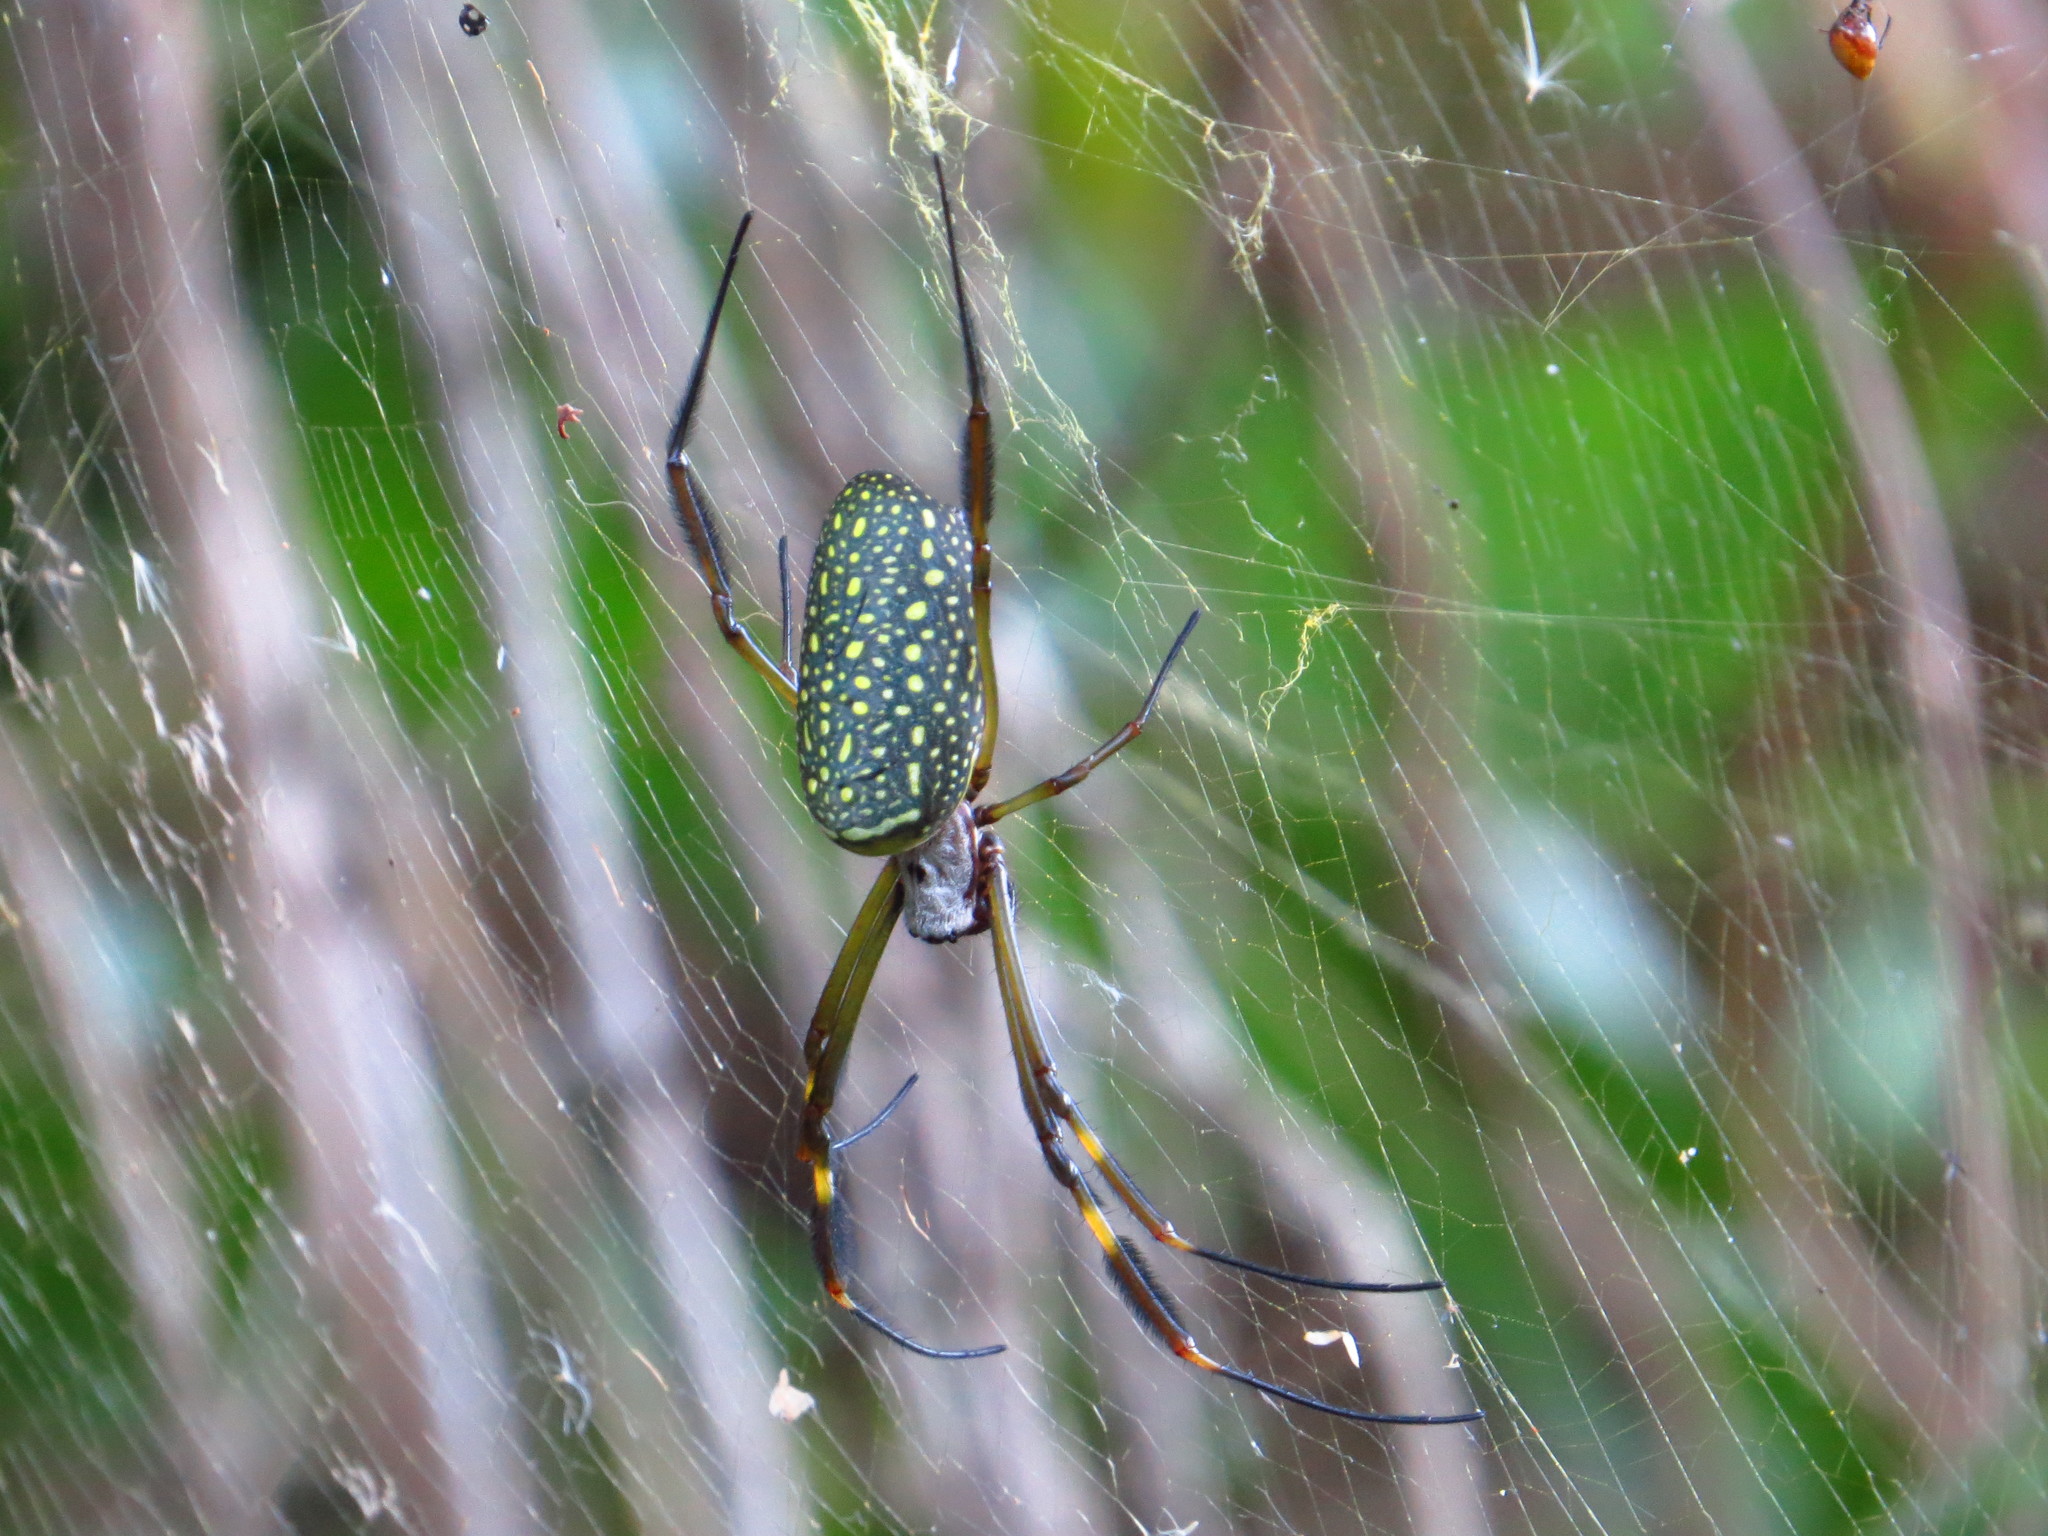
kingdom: Animalia
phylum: Arthropoda
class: Arachnida
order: Araneae
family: Araneidae
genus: Trichonephila
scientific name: Trichonephila clavipes
